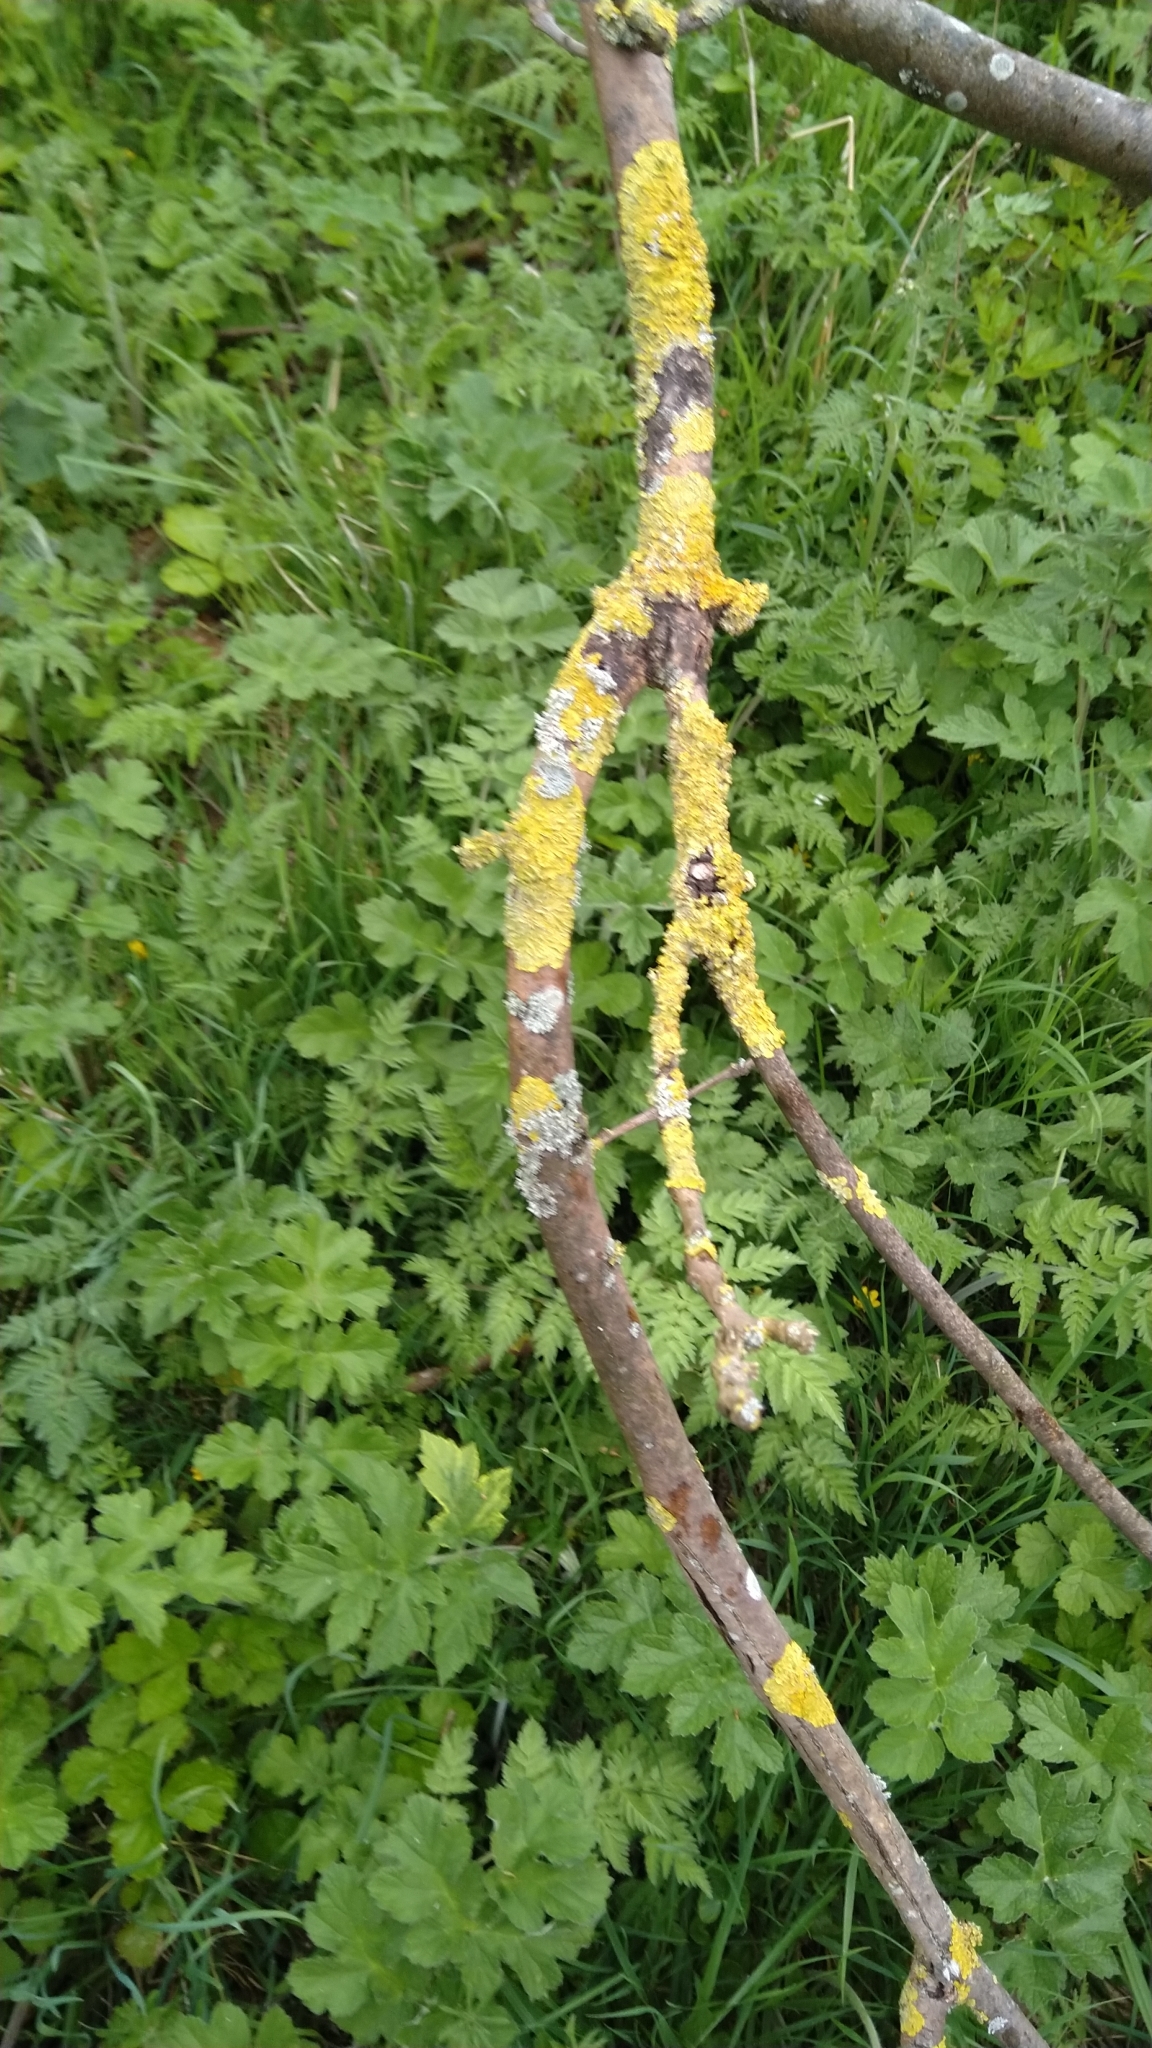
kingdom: Fungi
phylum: Ascomycota
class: Lecanoromycetes
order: Teloschistales
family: Teloschistaceae
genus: Xanthoria
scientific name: Xanthoria parietina
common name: Common orange lichen
